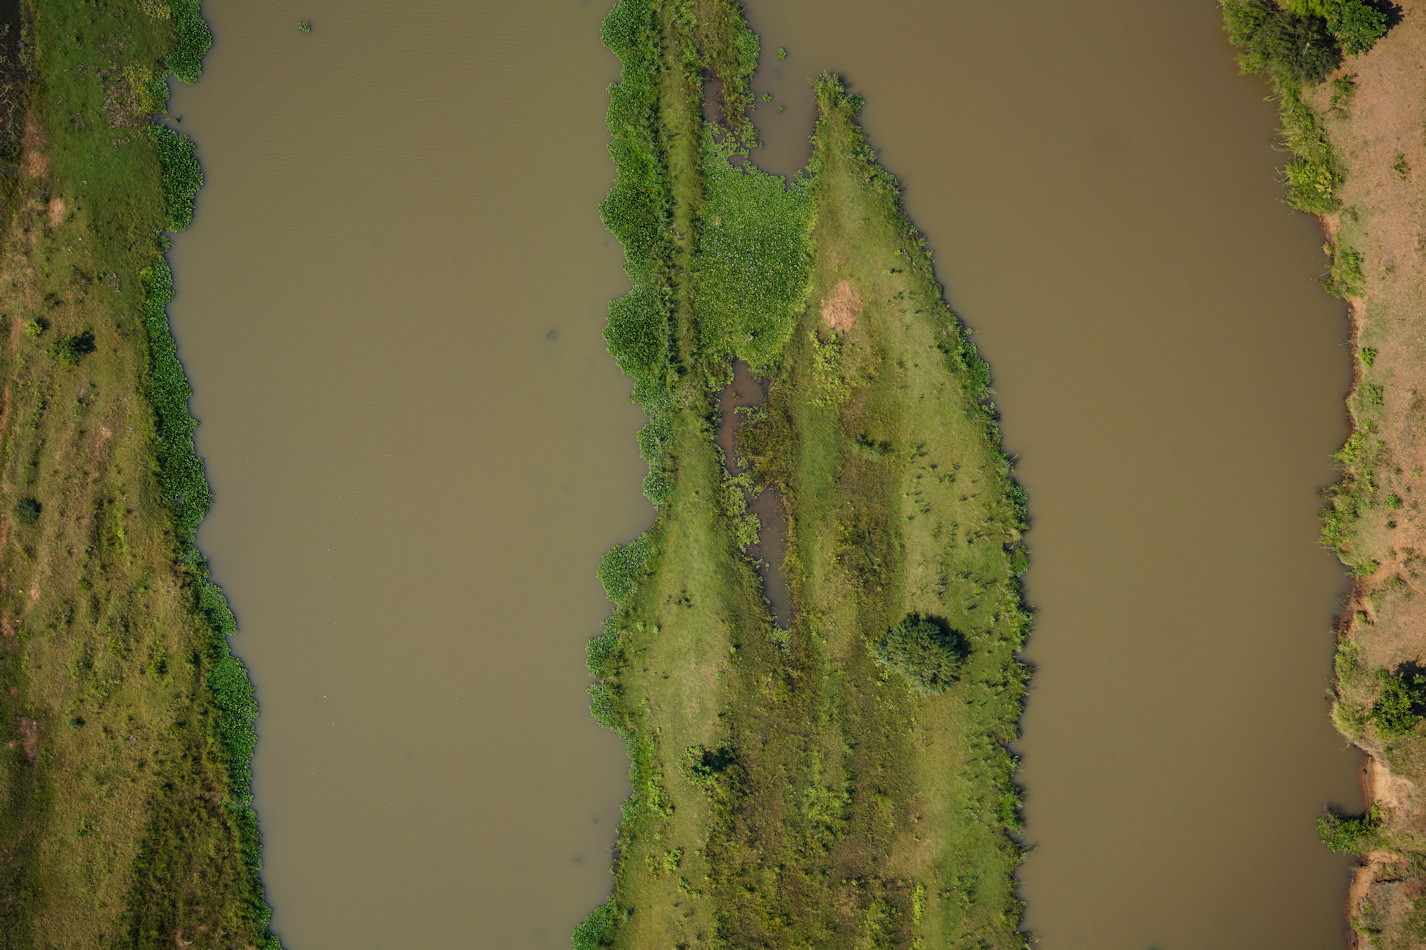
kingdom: Plantae
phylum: Tracheophyta
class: Liliopsida
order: Alismatales
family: Araceae
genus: Pistia
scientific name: Pistia stratiotes
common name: Water lettuce
